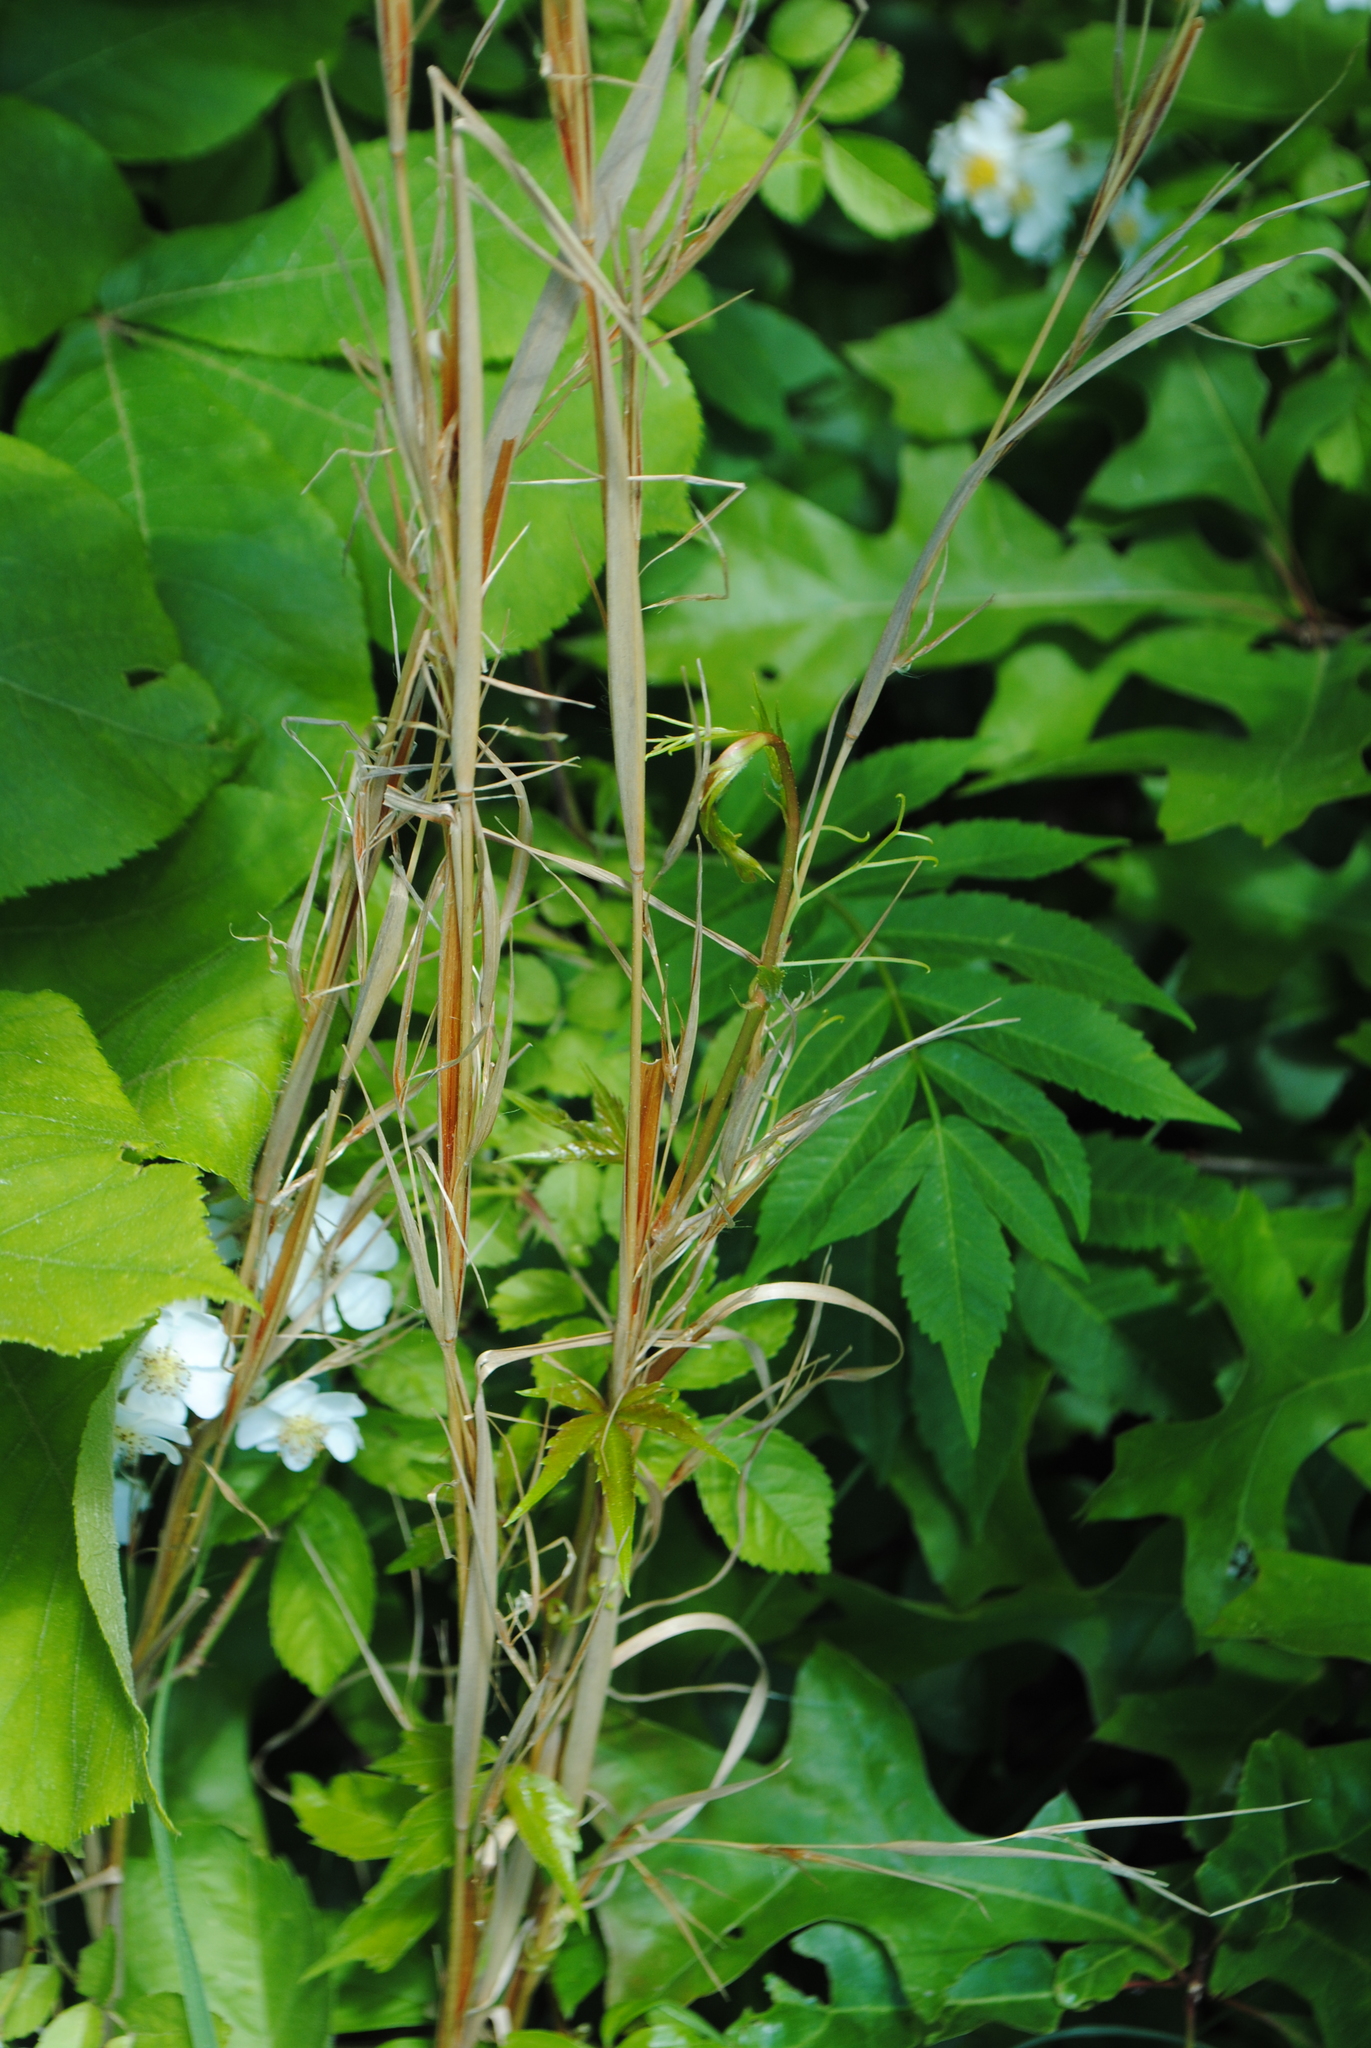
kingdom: Plantae
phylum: Tracheophyta
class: Liliopsida
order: Poales
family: Poaceae
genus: Andropogon
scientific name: Andropogon virginicus
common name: Broomsedge bluestem
